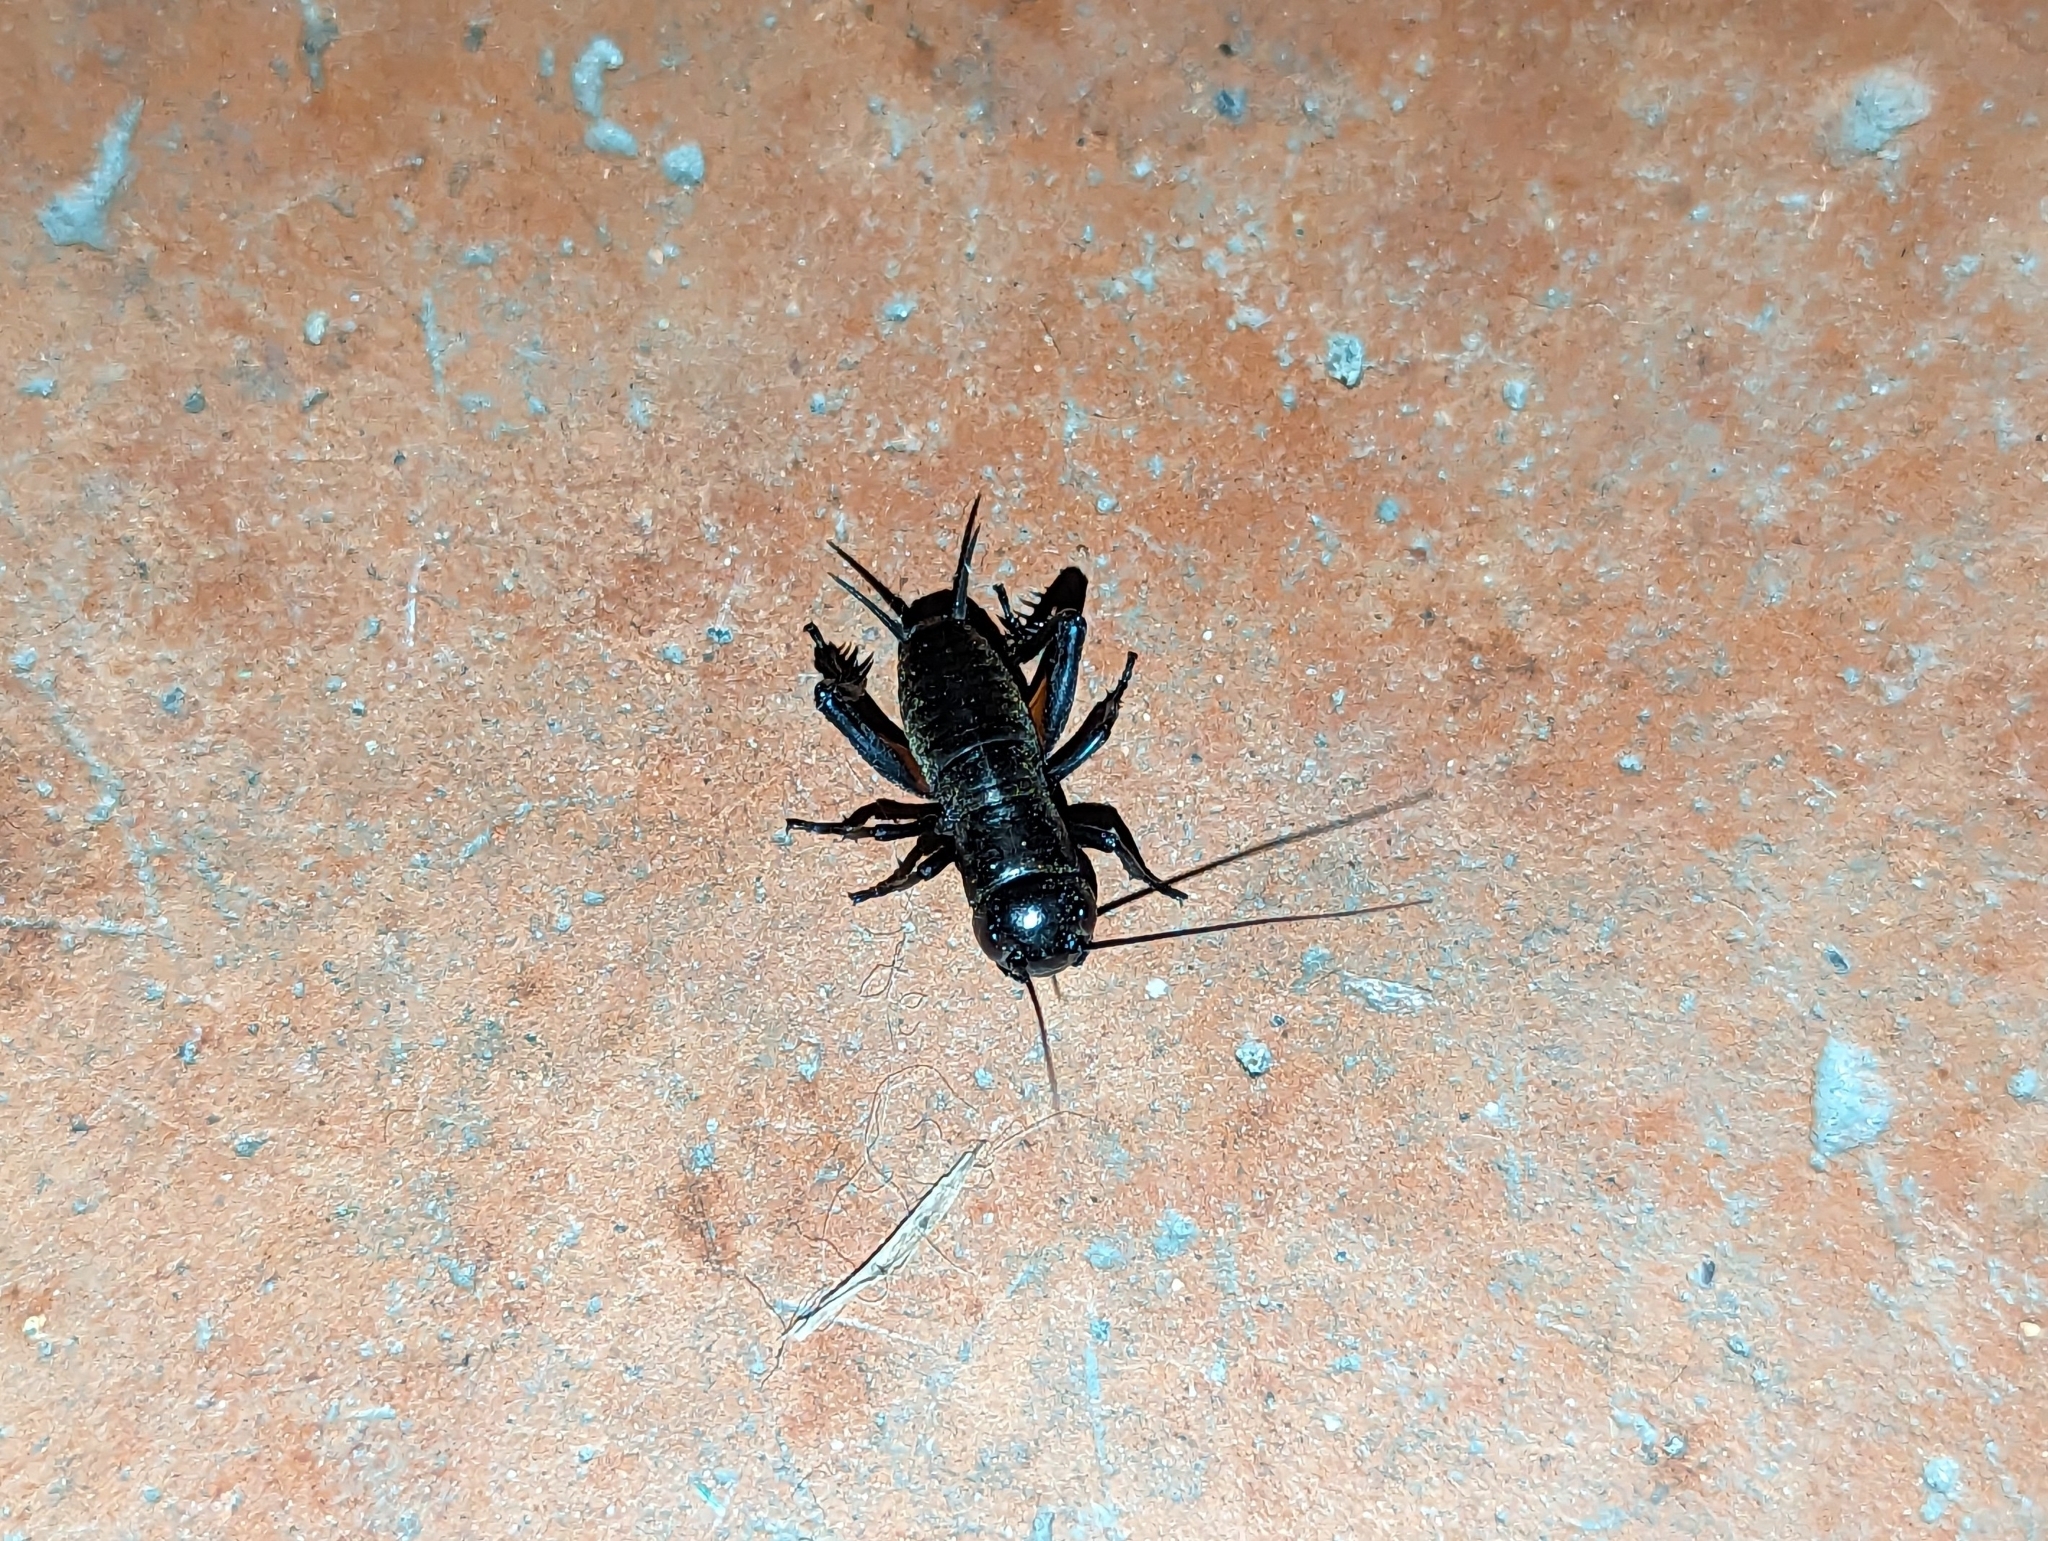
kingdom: Animalia
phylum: Arthropoda
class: Insecta
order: Orthoptera
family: Gryllidae
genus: Gryllus
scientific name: Gryllus campestris
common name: Field cricket
